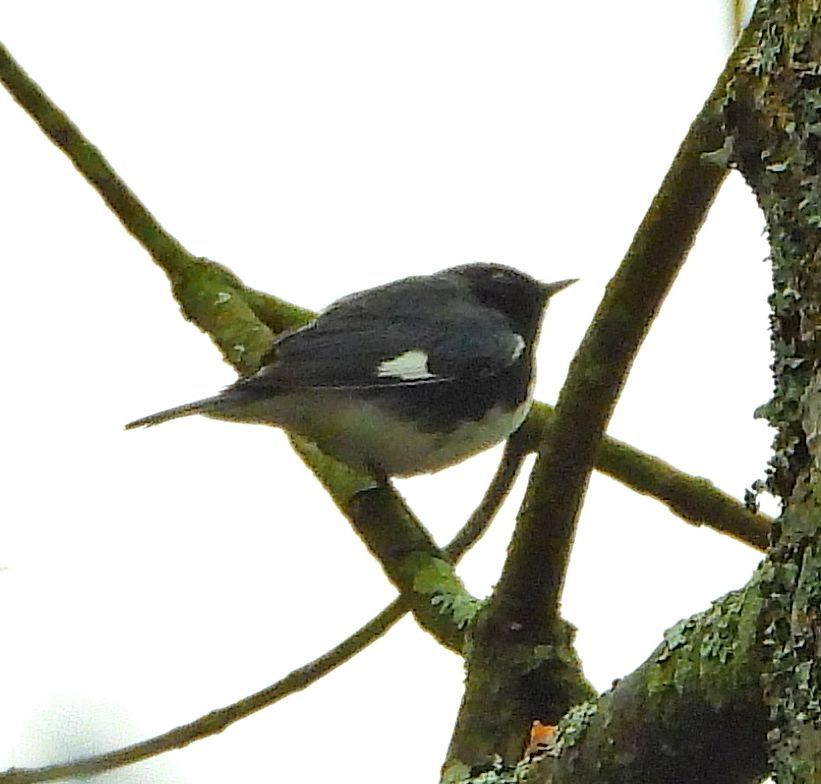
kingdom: Animalia
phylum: Chordata
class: Aves
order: Passeriformes
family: Parulidae
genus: Setophaga
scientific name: Setophaga caerulescens
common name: Black-throated blue warbler
